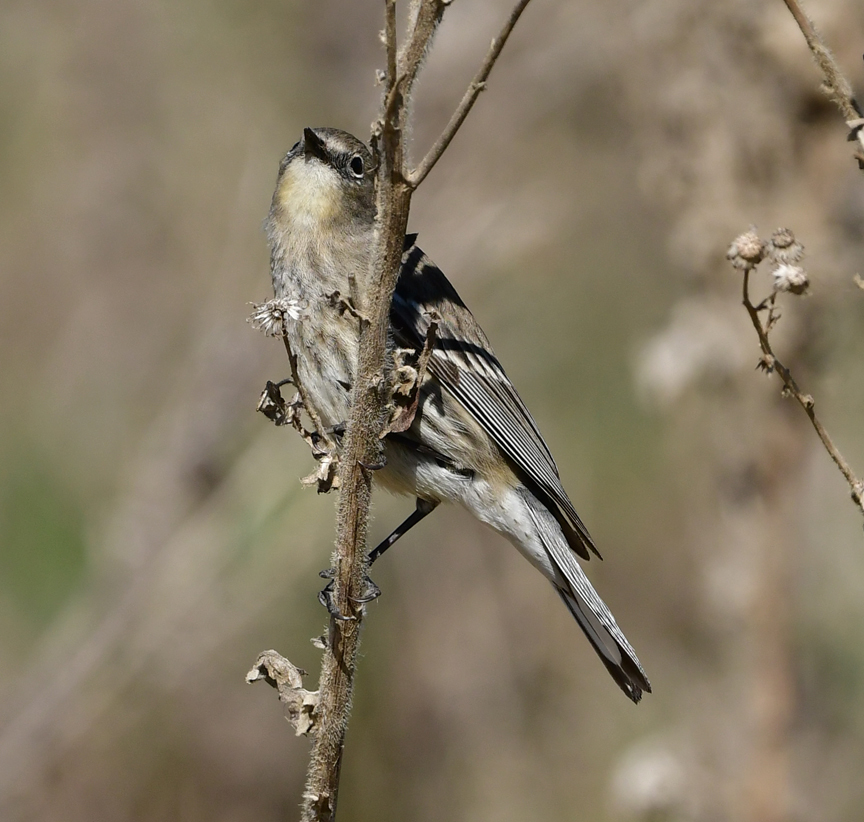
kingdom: Animalia
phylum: Chordata
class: Aves
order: Passeriformes
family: Parulidae
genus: Setophaga
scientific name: Setophaga coronata
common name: Myrtle warbler
